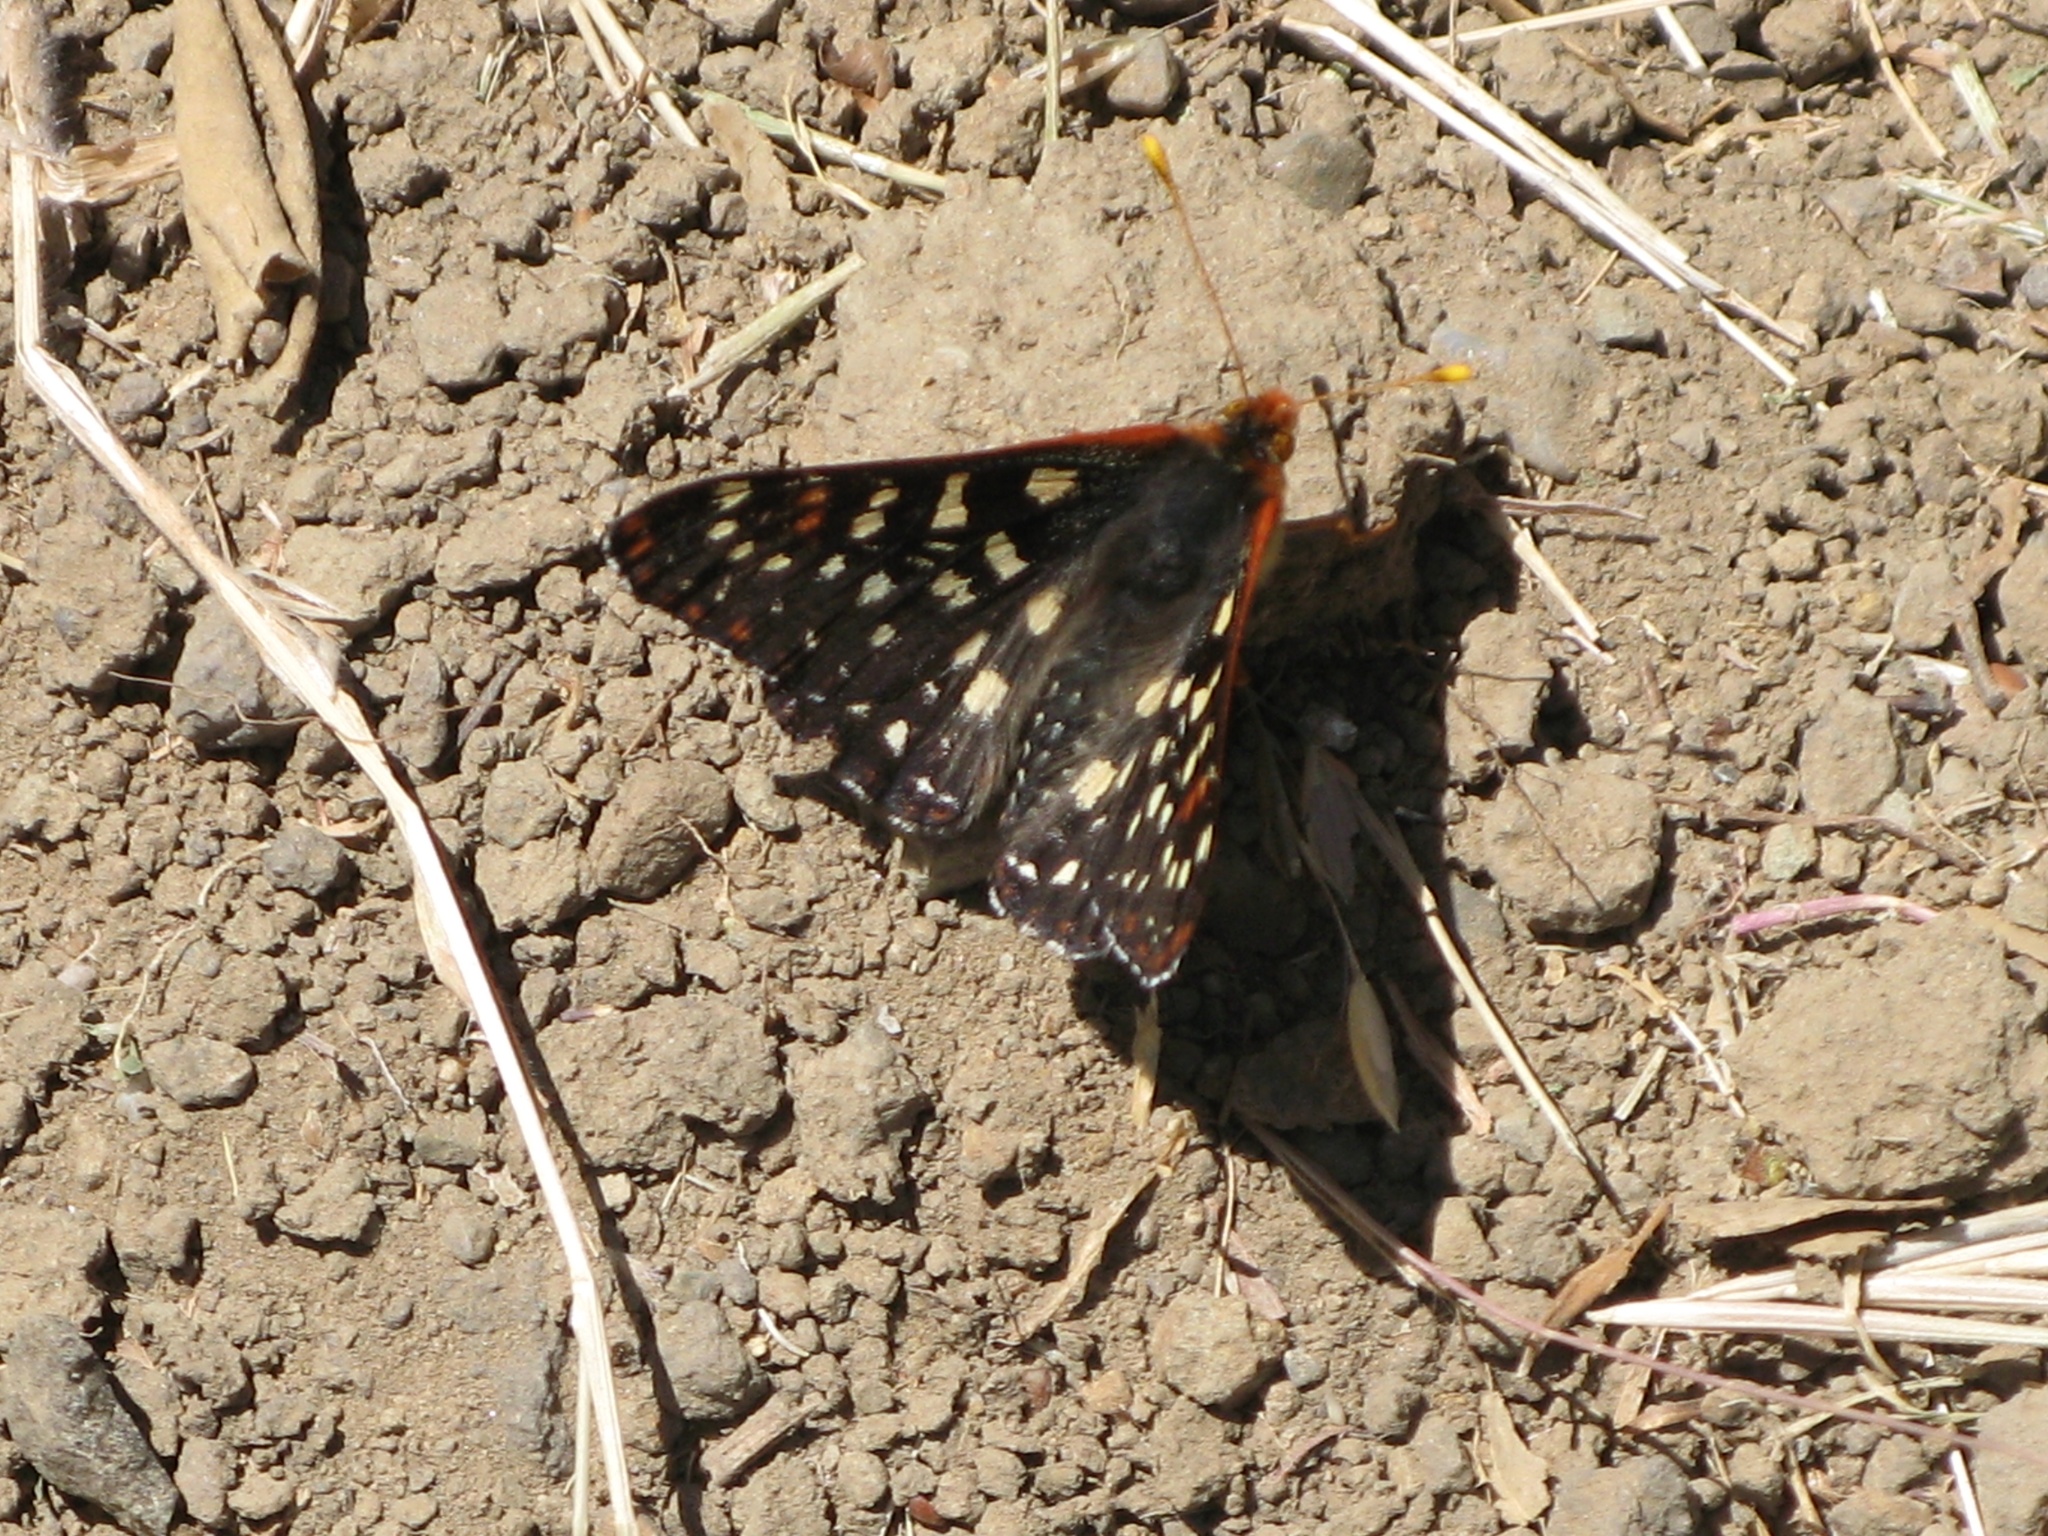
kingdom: Animalia
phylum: Arthropoda
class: Insecta
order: Lepidoptera
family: Nymphalidae
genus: Occidryas
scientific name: Occidryas chalcedona
